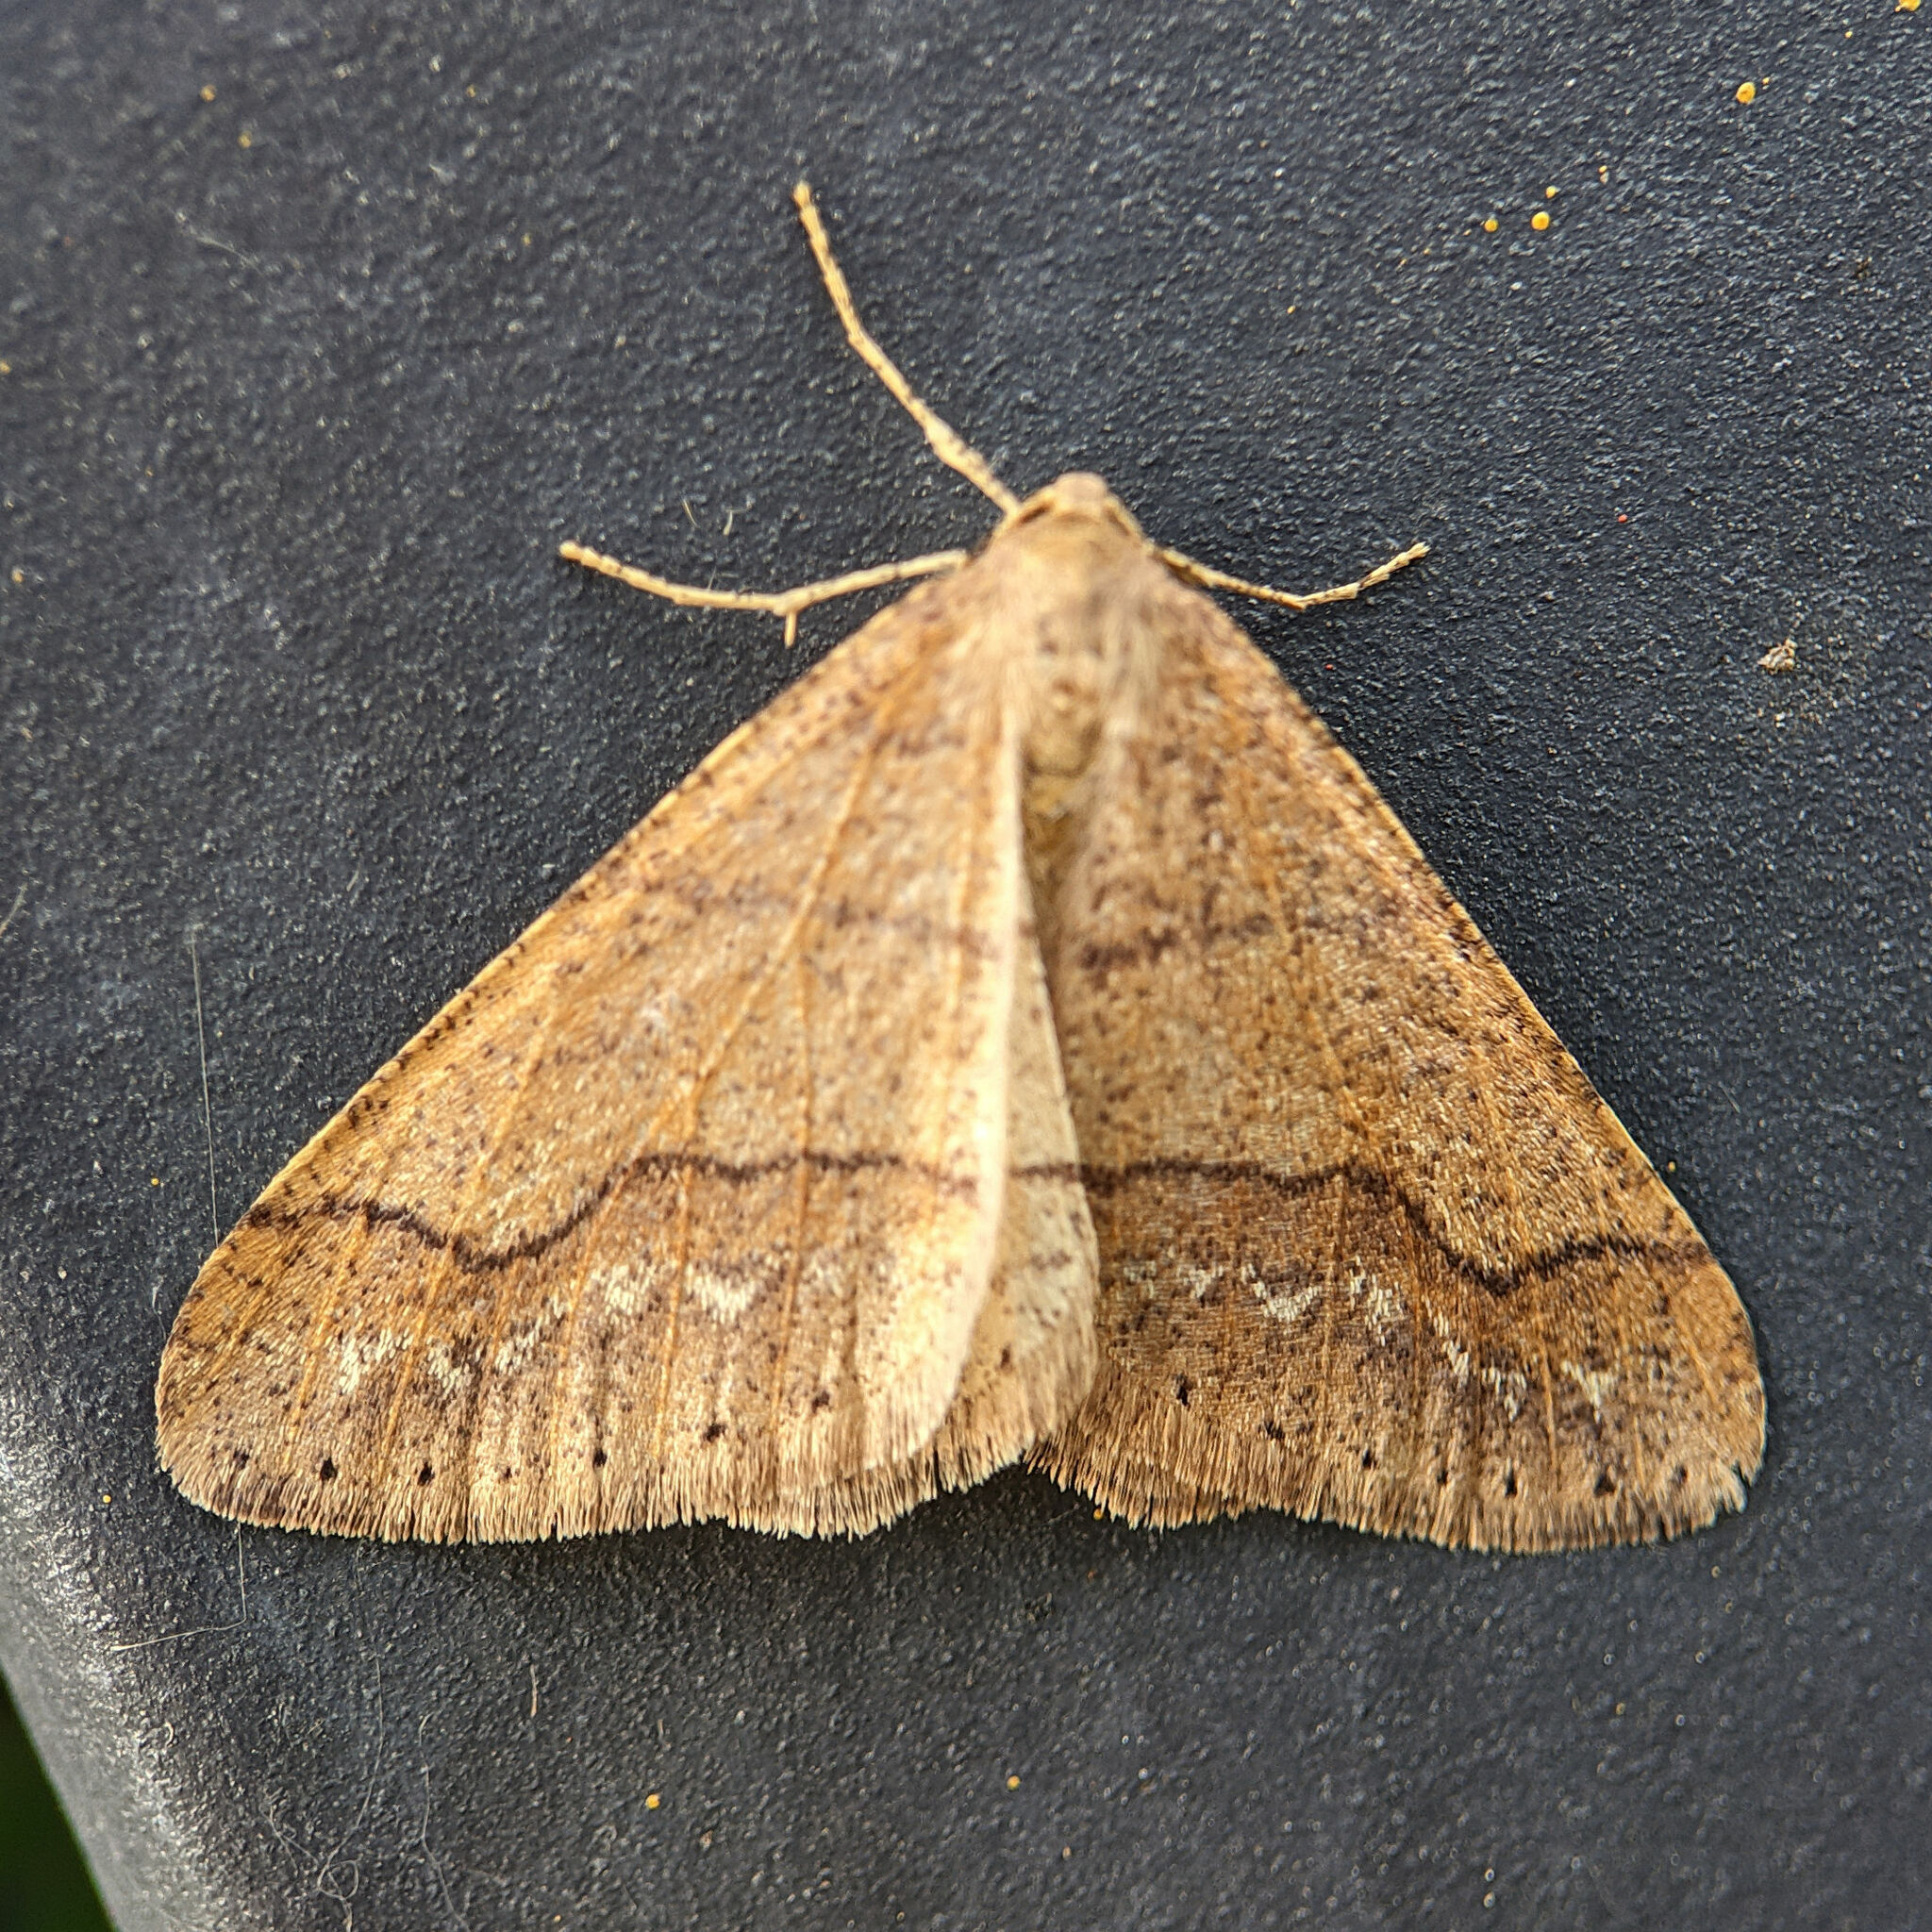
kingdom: Animalia
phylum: Arthropoda
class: Insecta
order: Lepidoptera
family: Geometridae
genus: Agriopis
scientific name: Agriopis marginaria
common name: Dotted border
